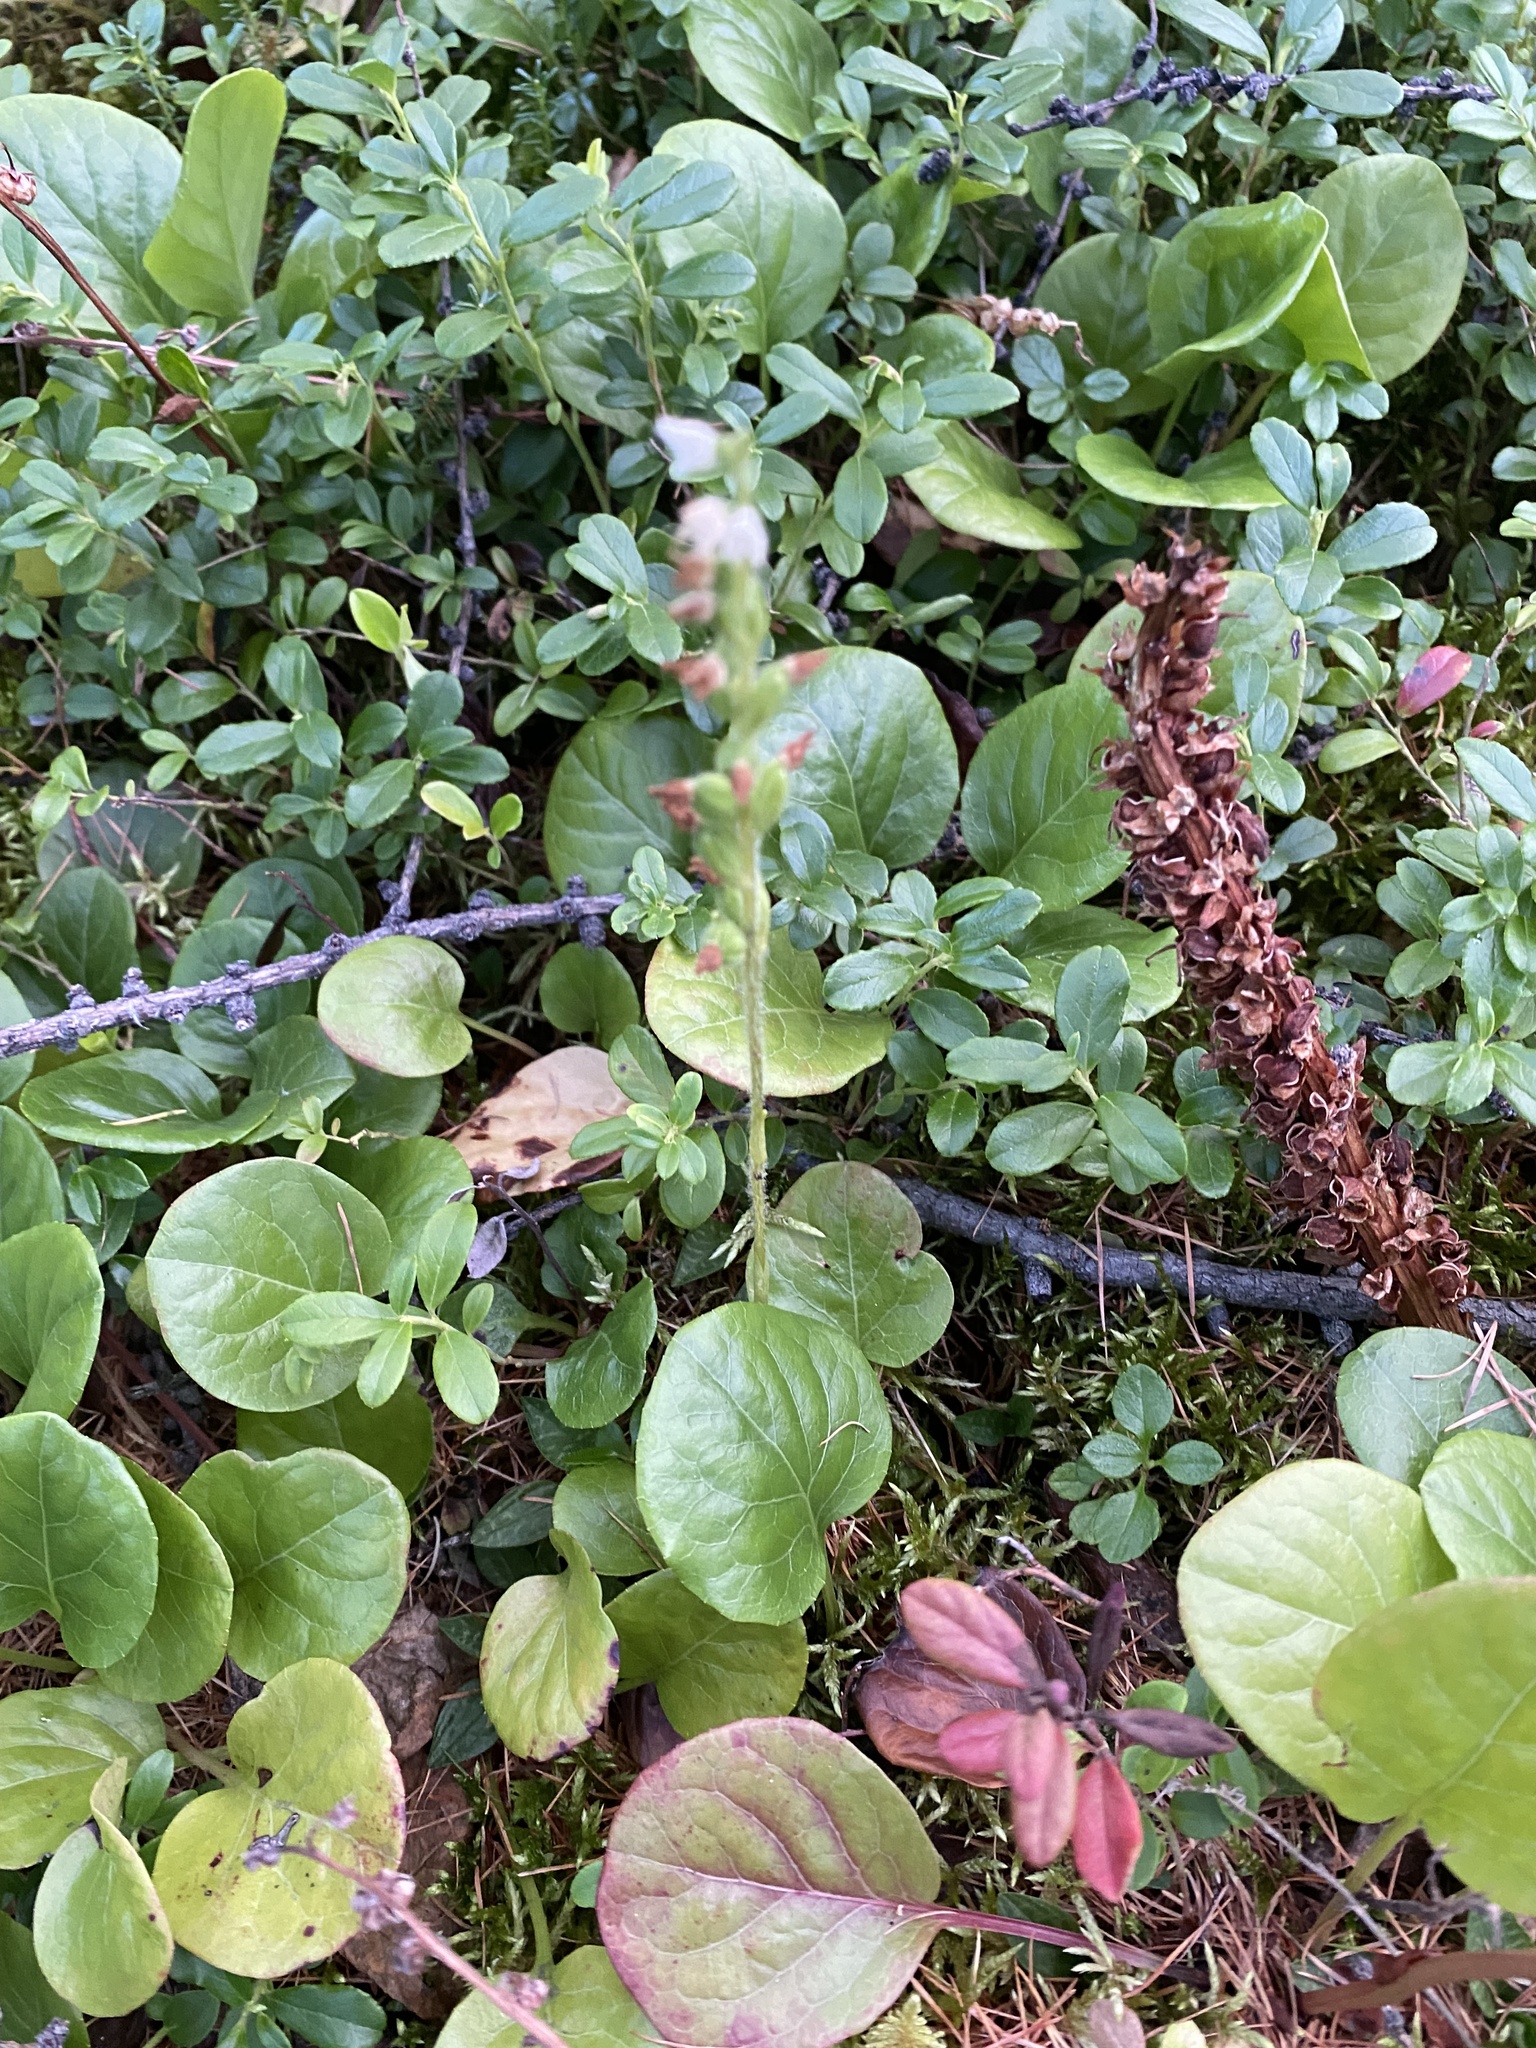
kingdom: Plantae
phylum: Tracheophyta
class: Liliopsida
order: Asparagales
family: Orchidaceae
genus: Goodyera
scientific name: Goodyera repens
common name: Creeping lady's-tresses
